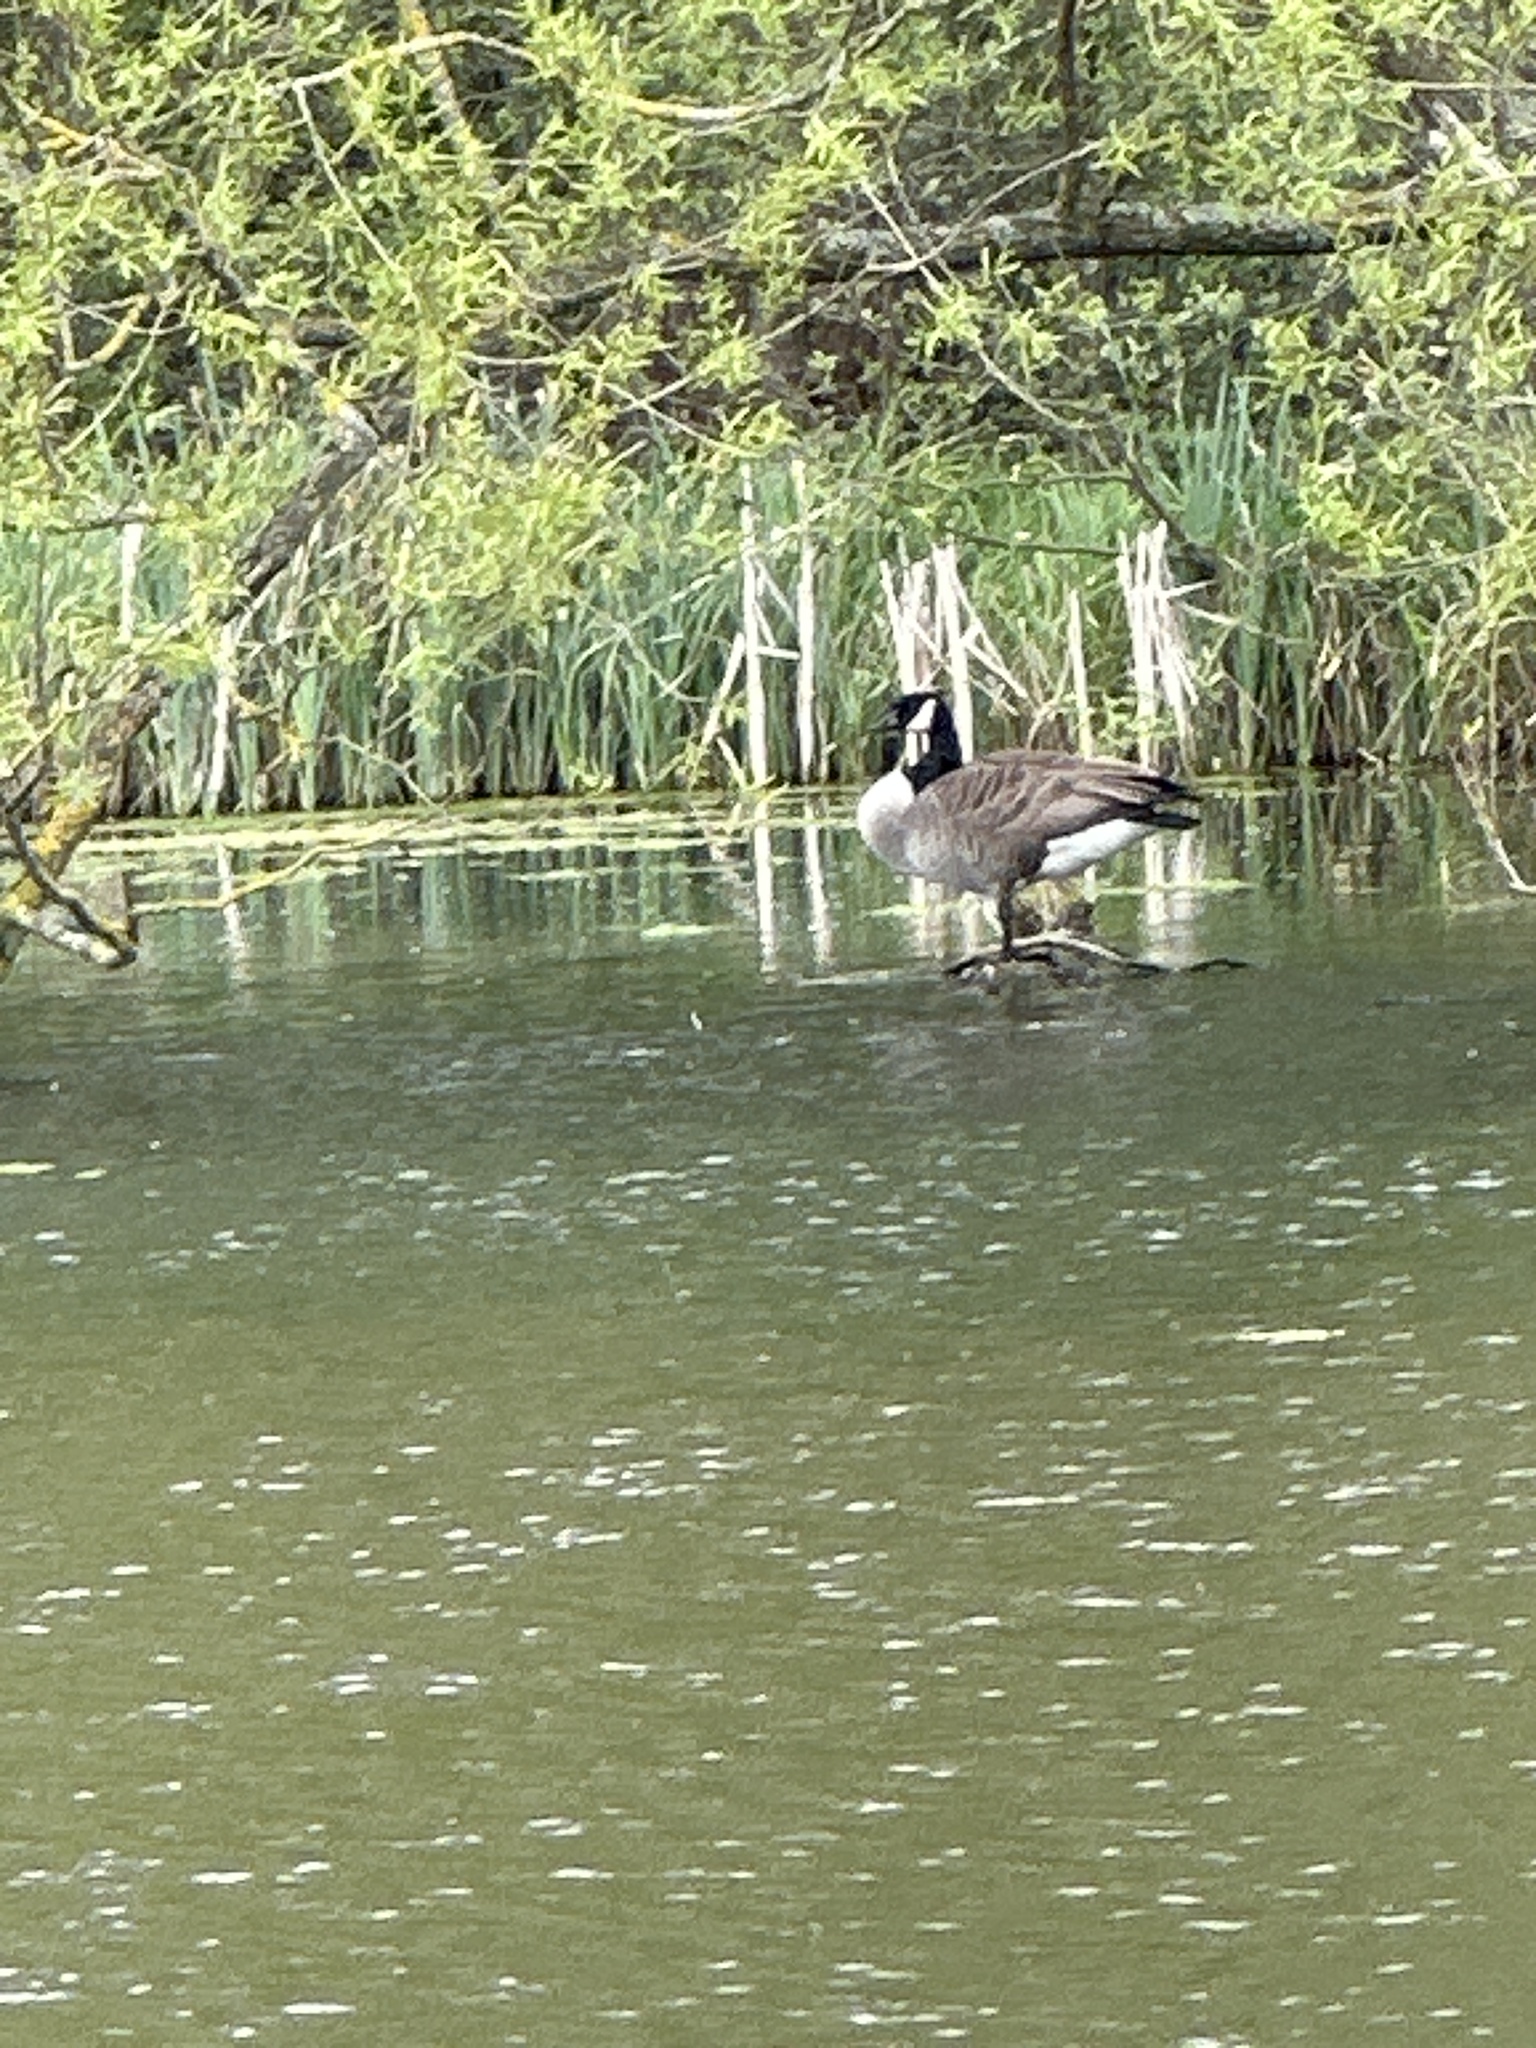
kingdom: Animalia
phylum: Chordata
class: Aves
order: Anseriformes
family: Anatidae
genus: Branta
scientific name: Branta canadensis
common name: Canada goose
